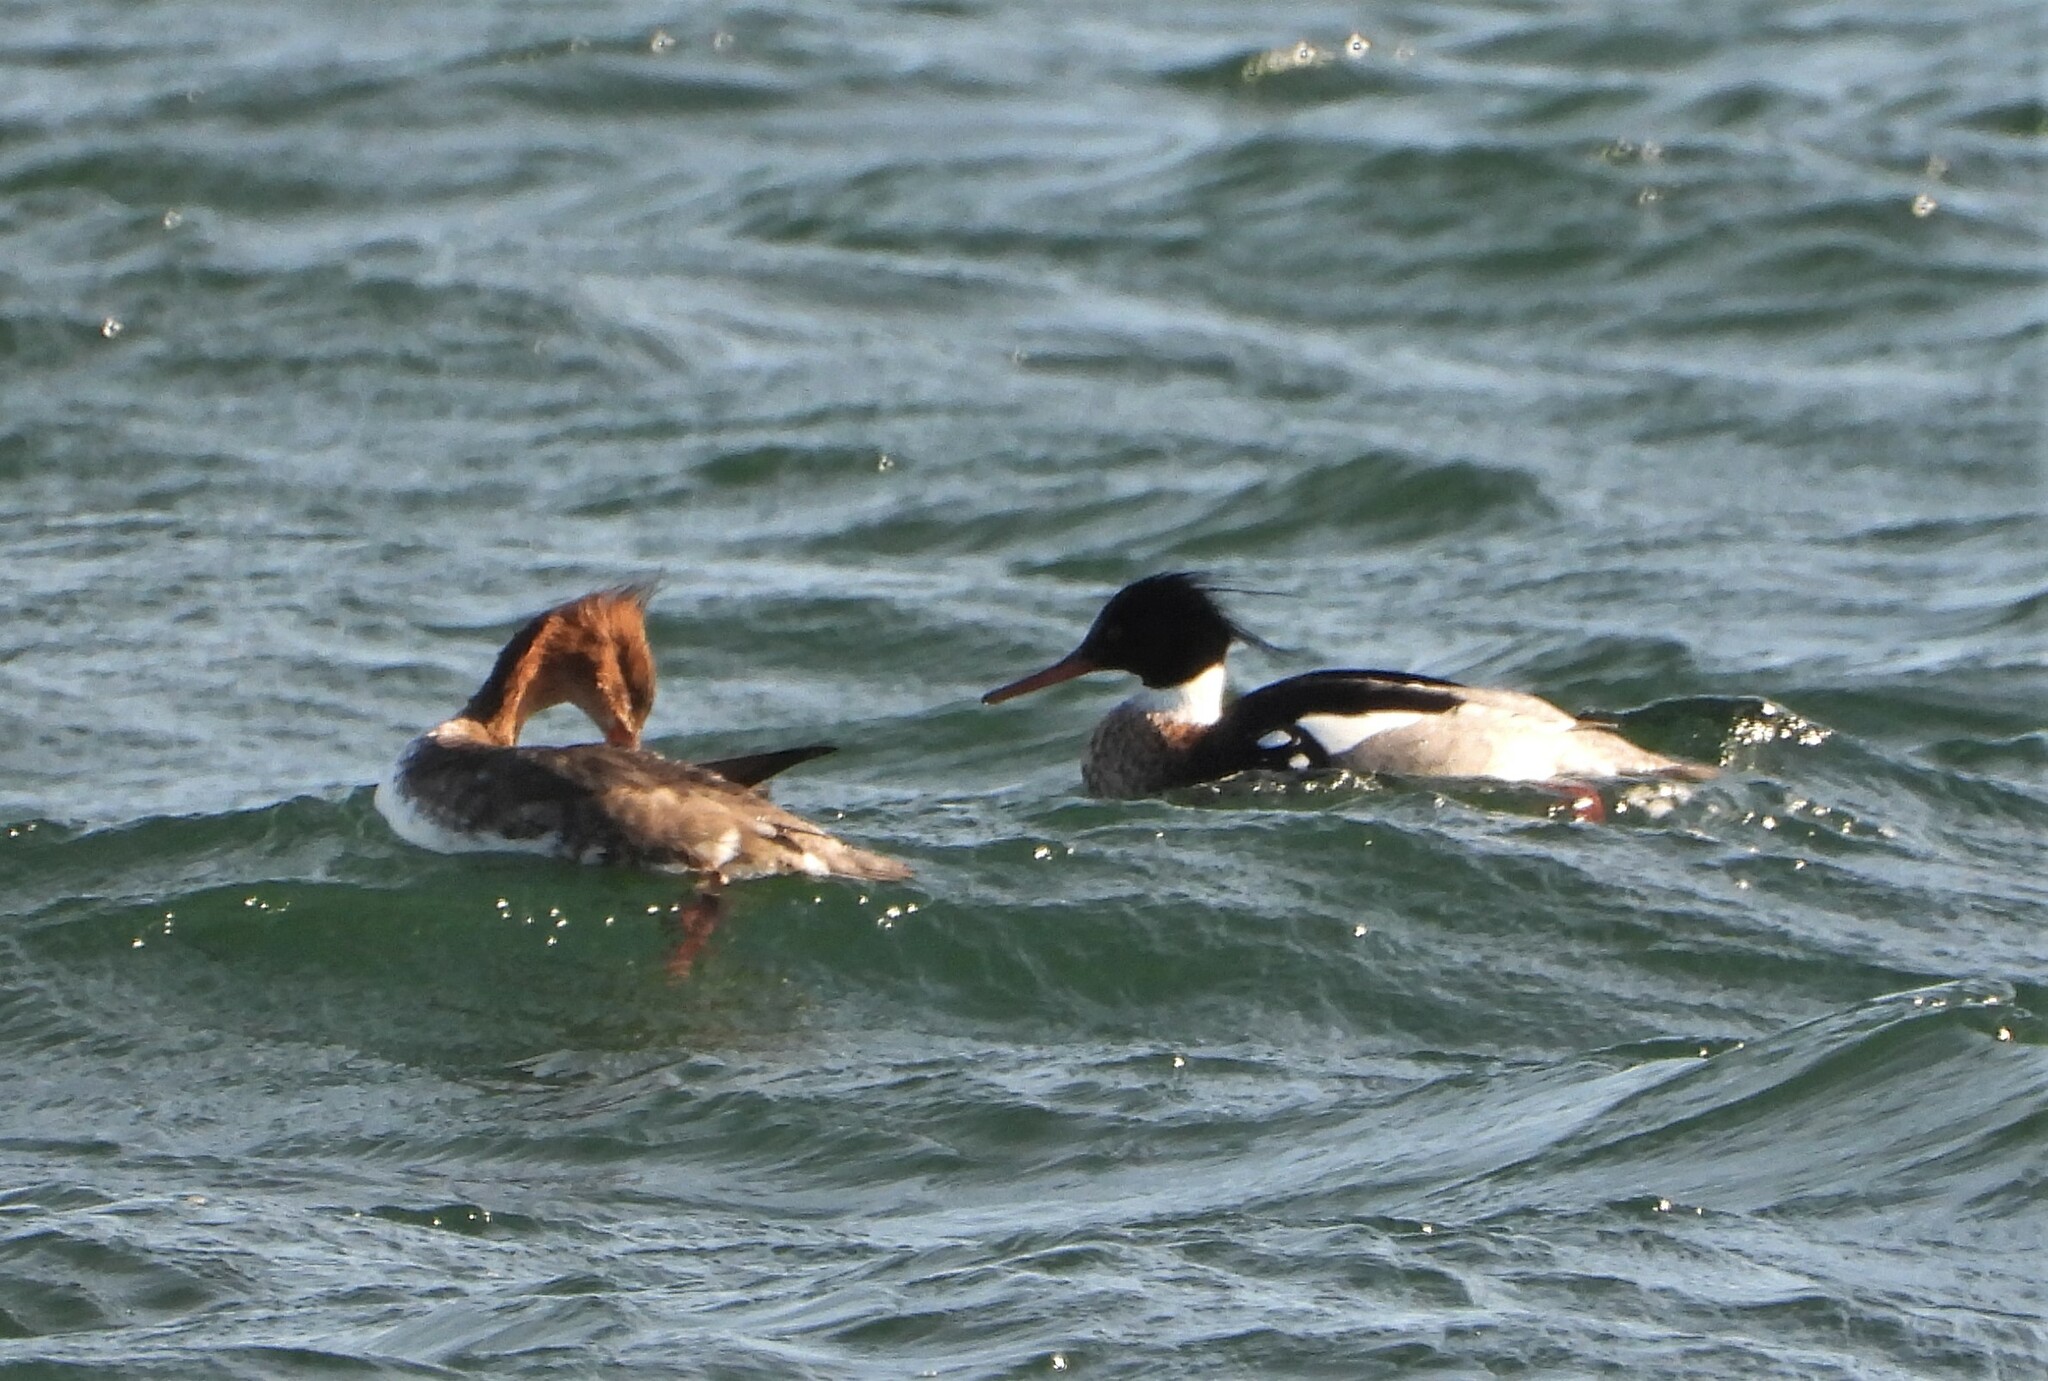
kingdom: Animalia
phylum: Chordata
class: Aves
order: Anseriformes
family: Anatidae
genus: Mergus
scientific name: Mergus serrator
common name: Red-breasted merganser
